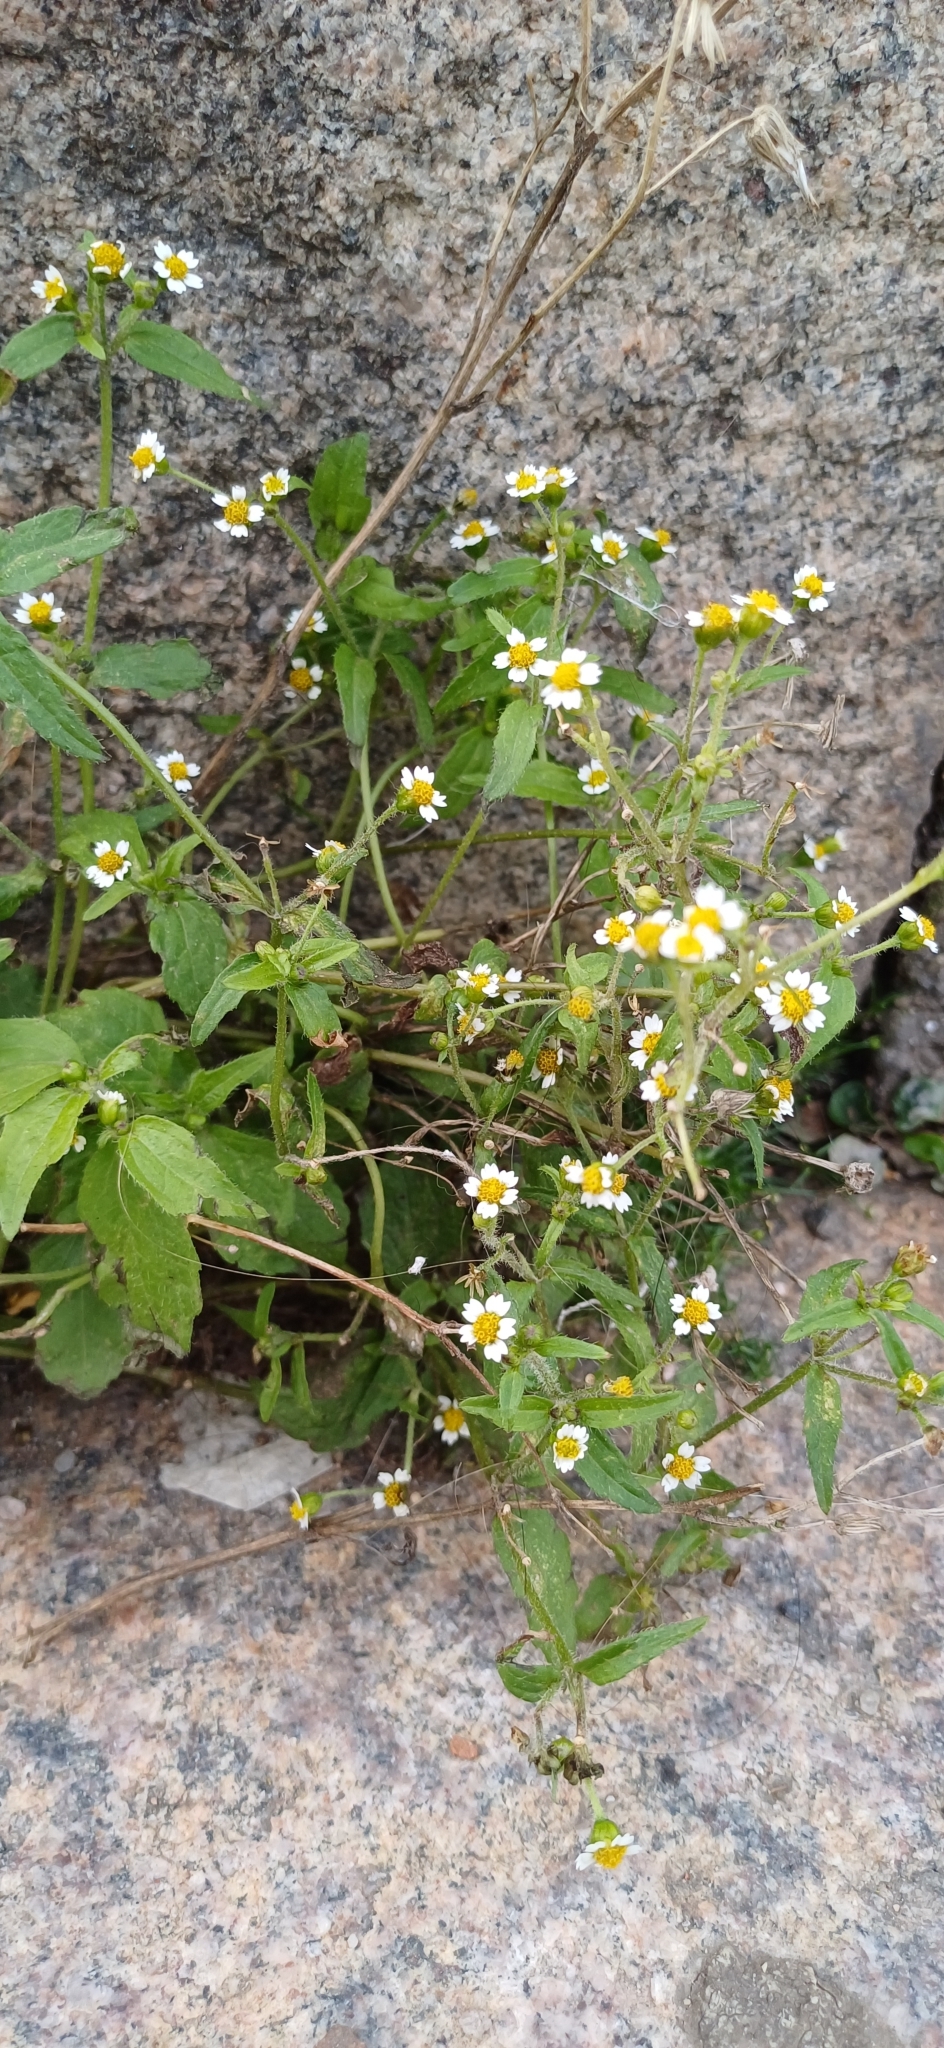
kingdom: Plantae
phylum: Tracheophyta
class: Magnoliopsida
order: Asterales
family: Asteraceae
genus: Galinsoga
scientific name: Galinsoga quadriradiata
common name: Shaggy soldier
